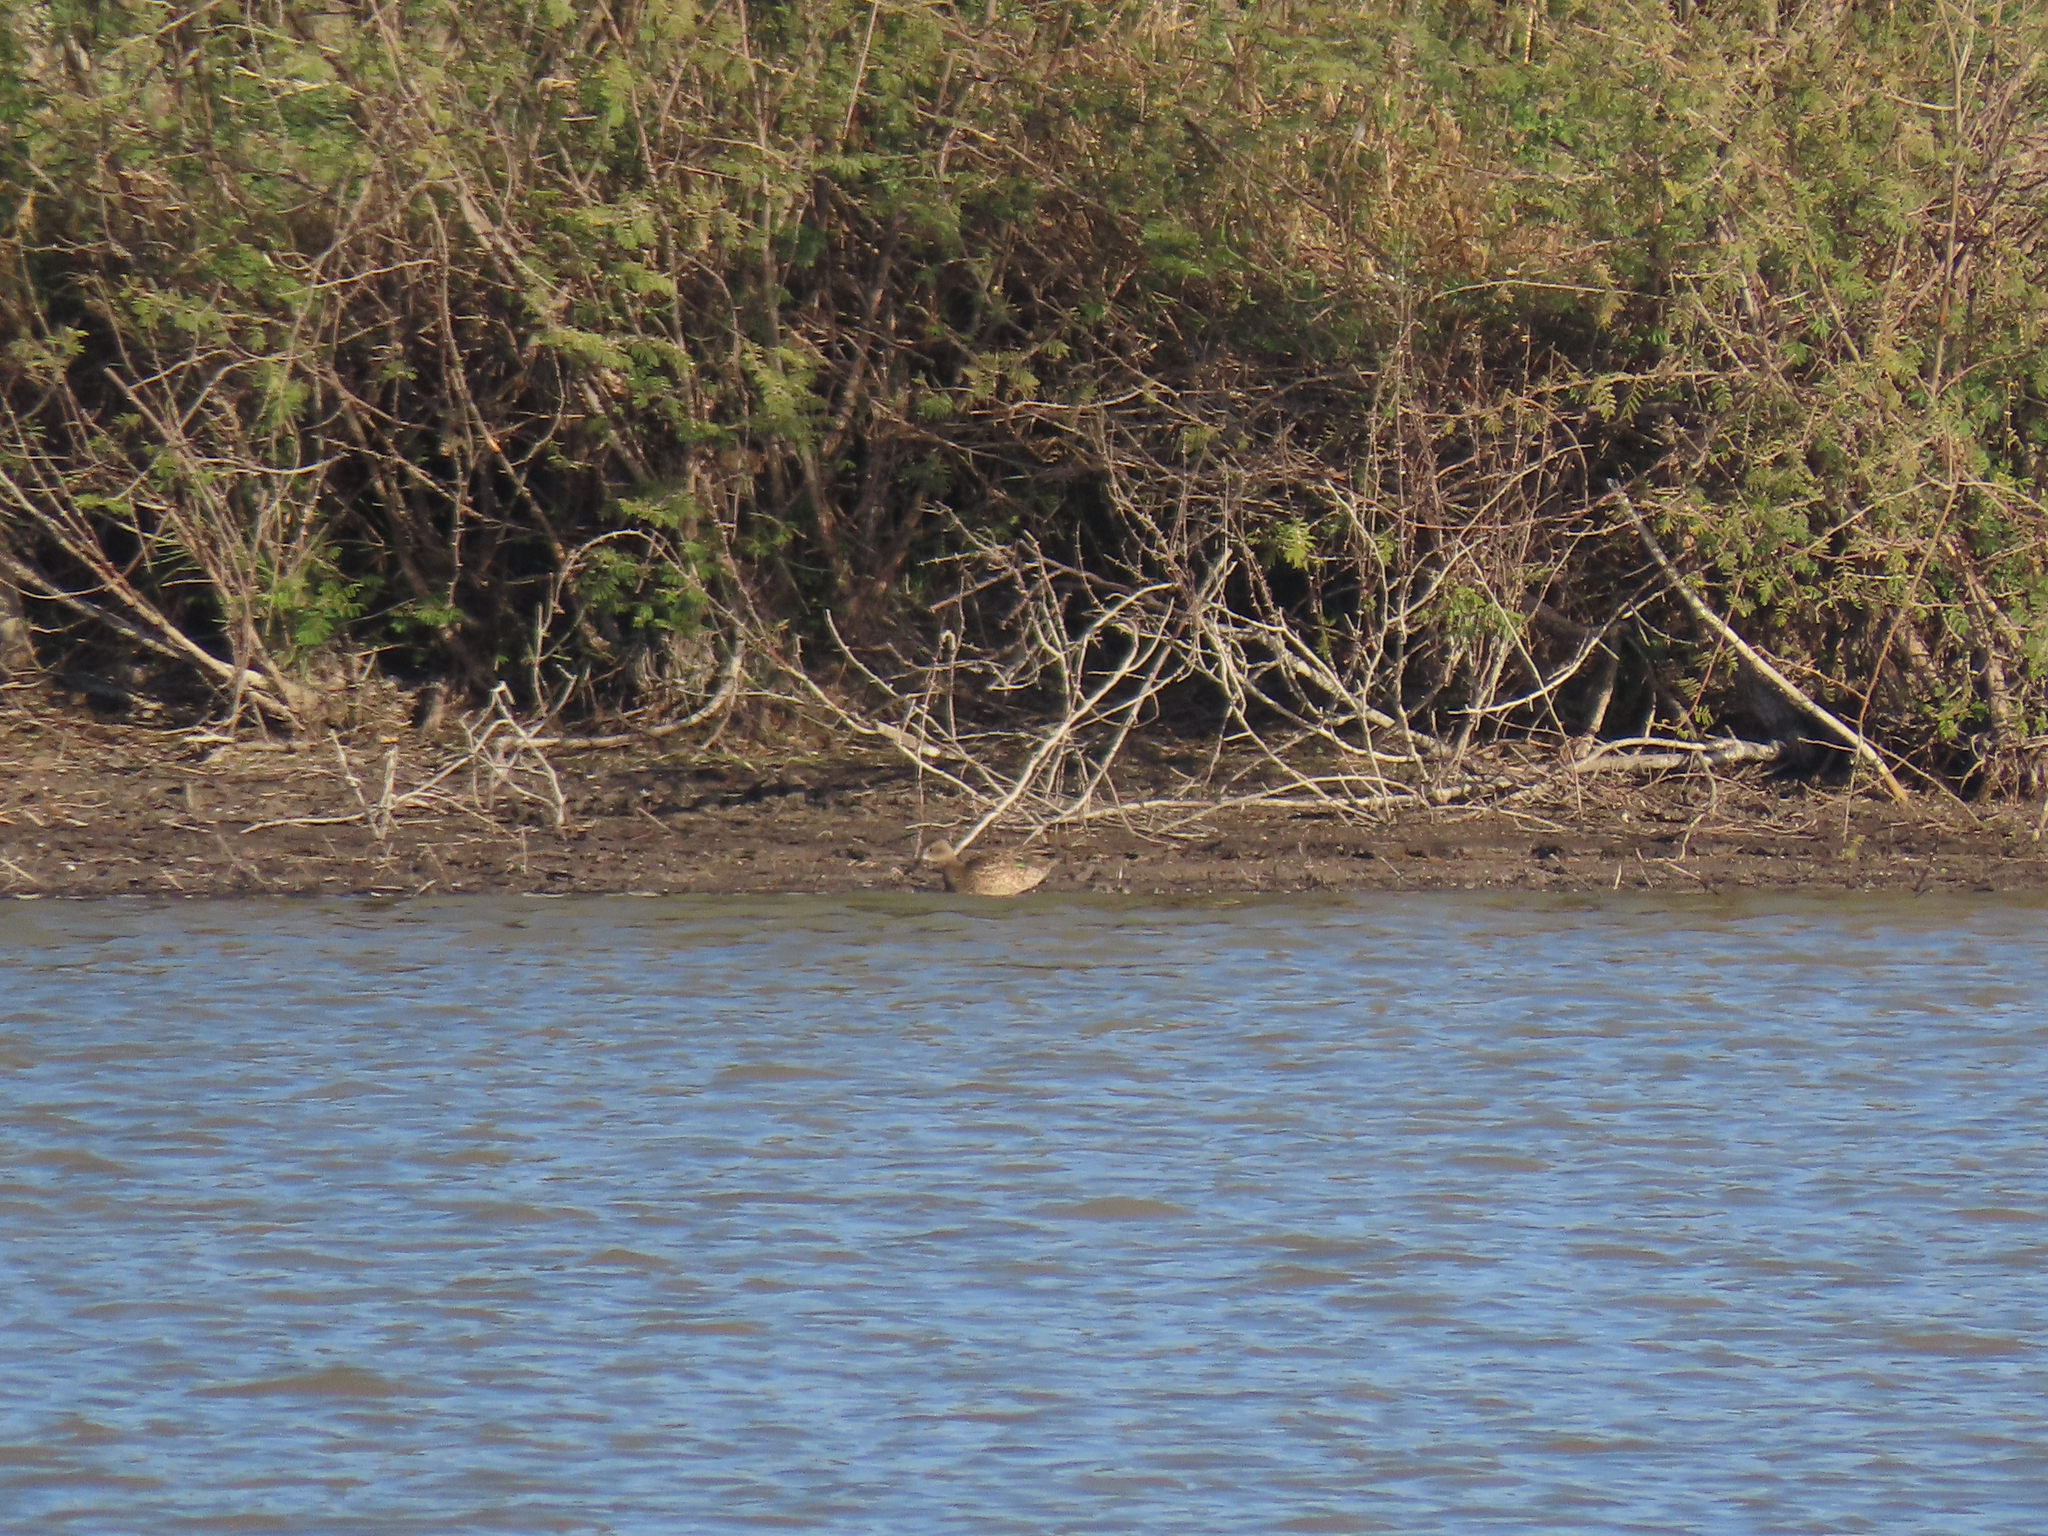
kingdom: Animalia
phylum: Chordata
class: Aves
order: Anseriformes
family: Anatidae
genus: Anas
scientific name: Anas crecca
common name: Eurasian teal
